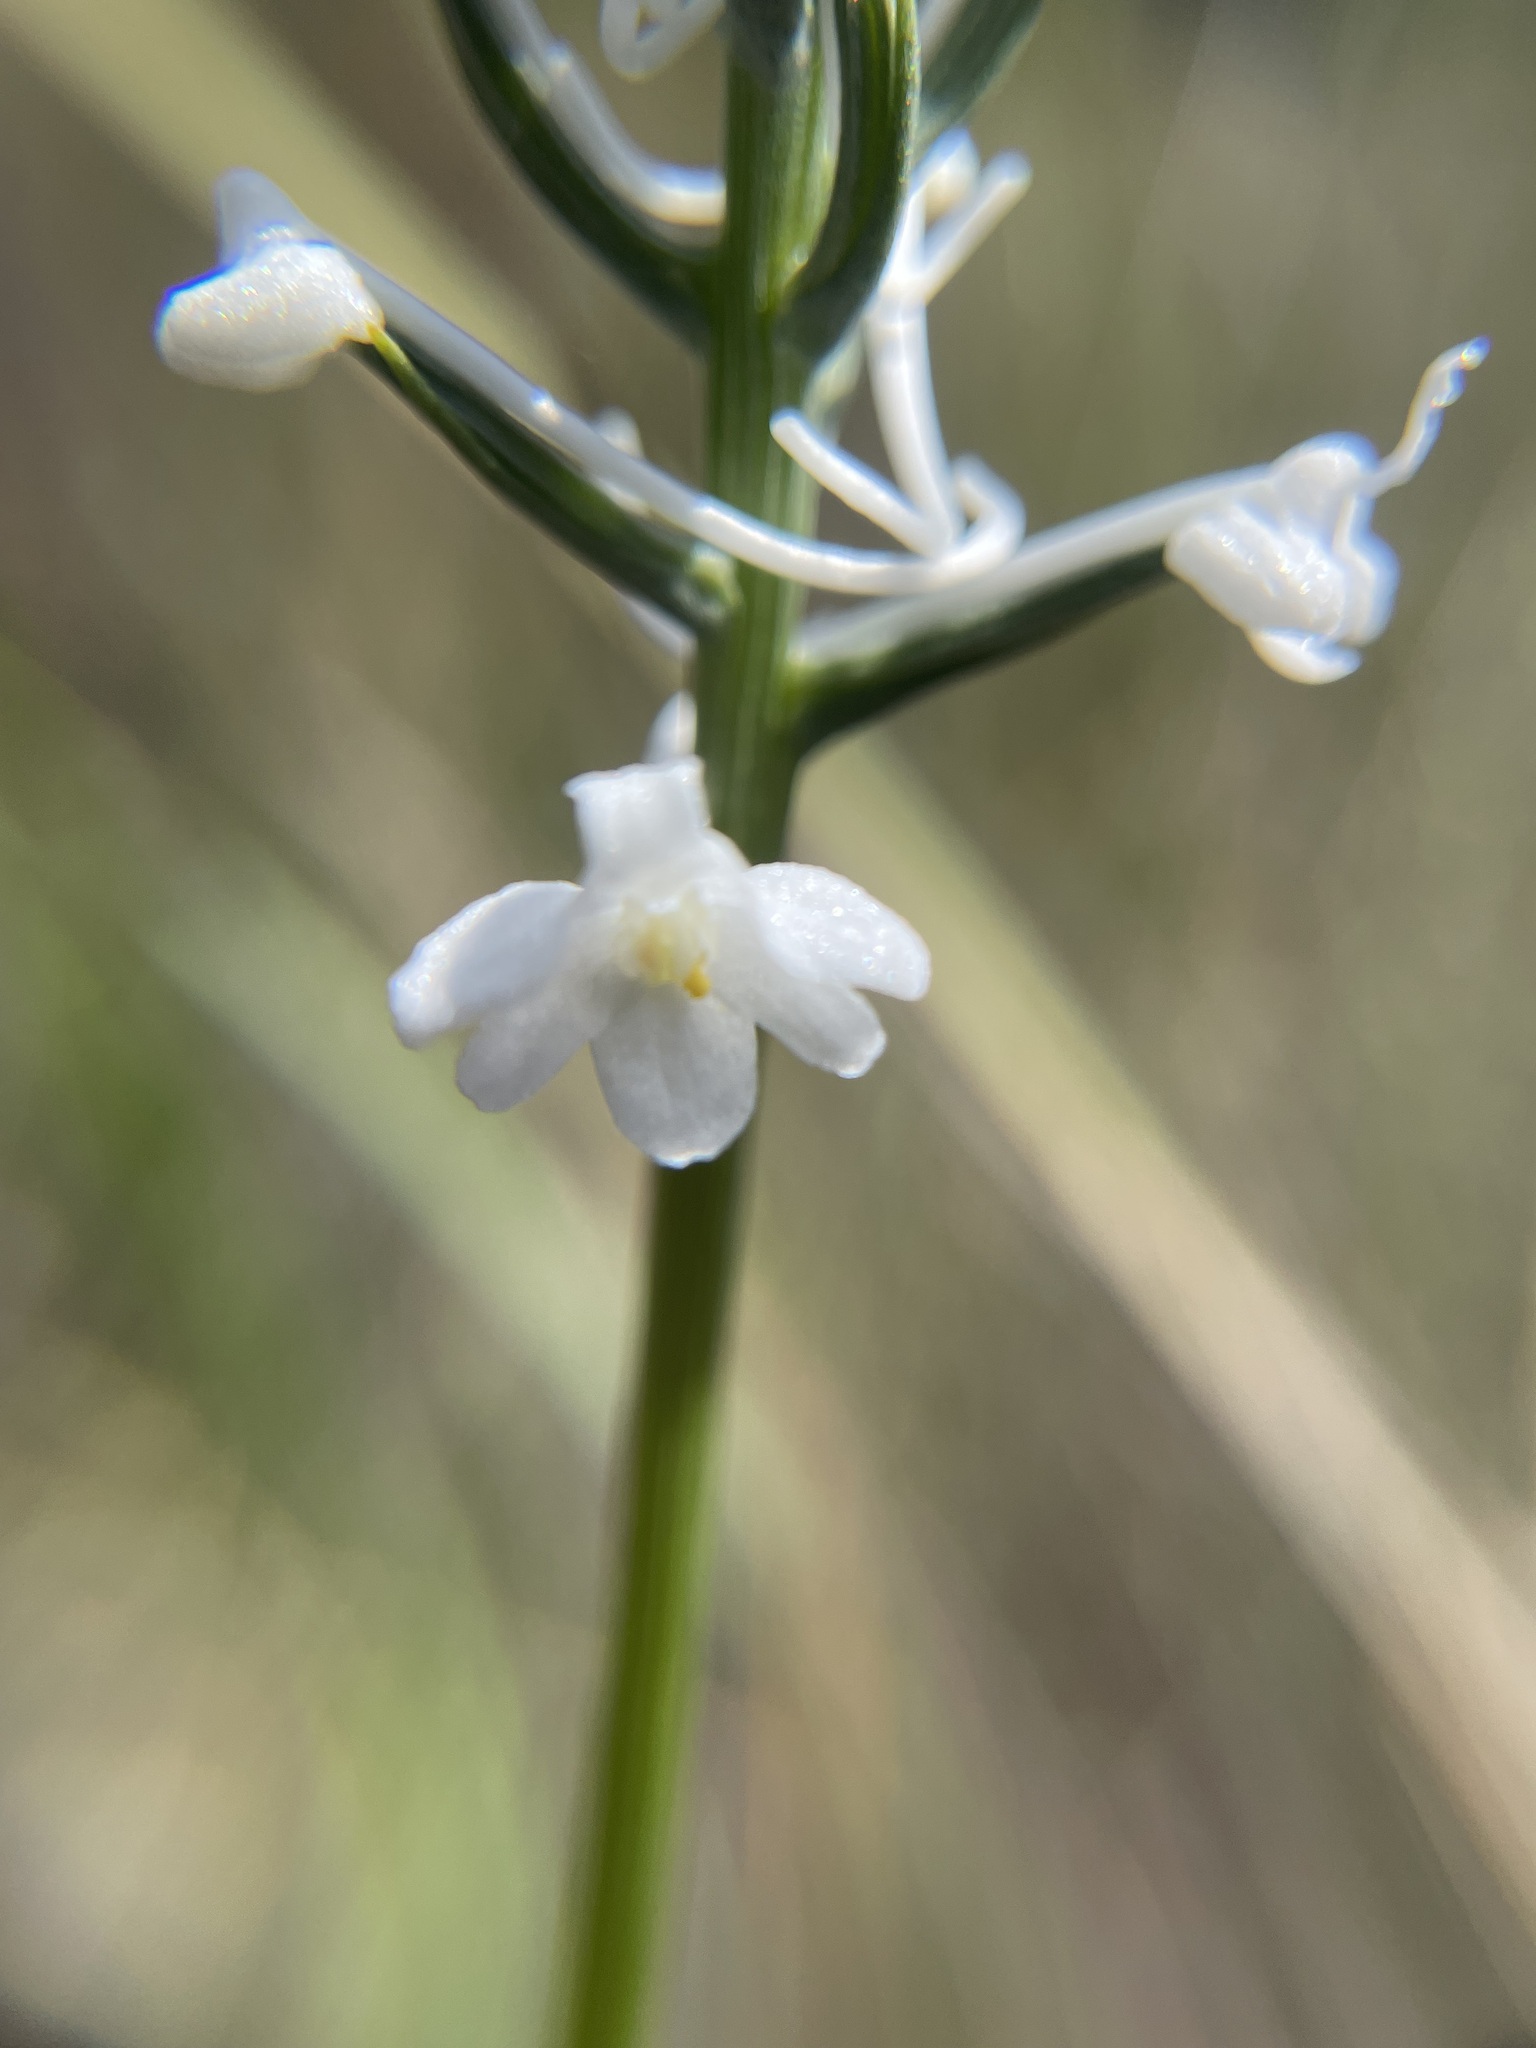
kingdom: Plantae
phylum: Tracheophyta
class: Liliopsida
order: Asparagales
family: Orchidaceae
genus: Platanthera
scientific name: Platanthera nivea
